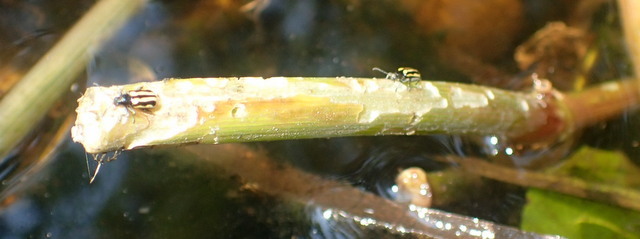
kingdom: Animalia
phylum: Arthropoda
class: Insecta
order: Coleoptera
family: Chrysomelidae
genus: Agasicles
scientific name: Agasicles hygrophila
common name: Alligatorweed flea beetle
